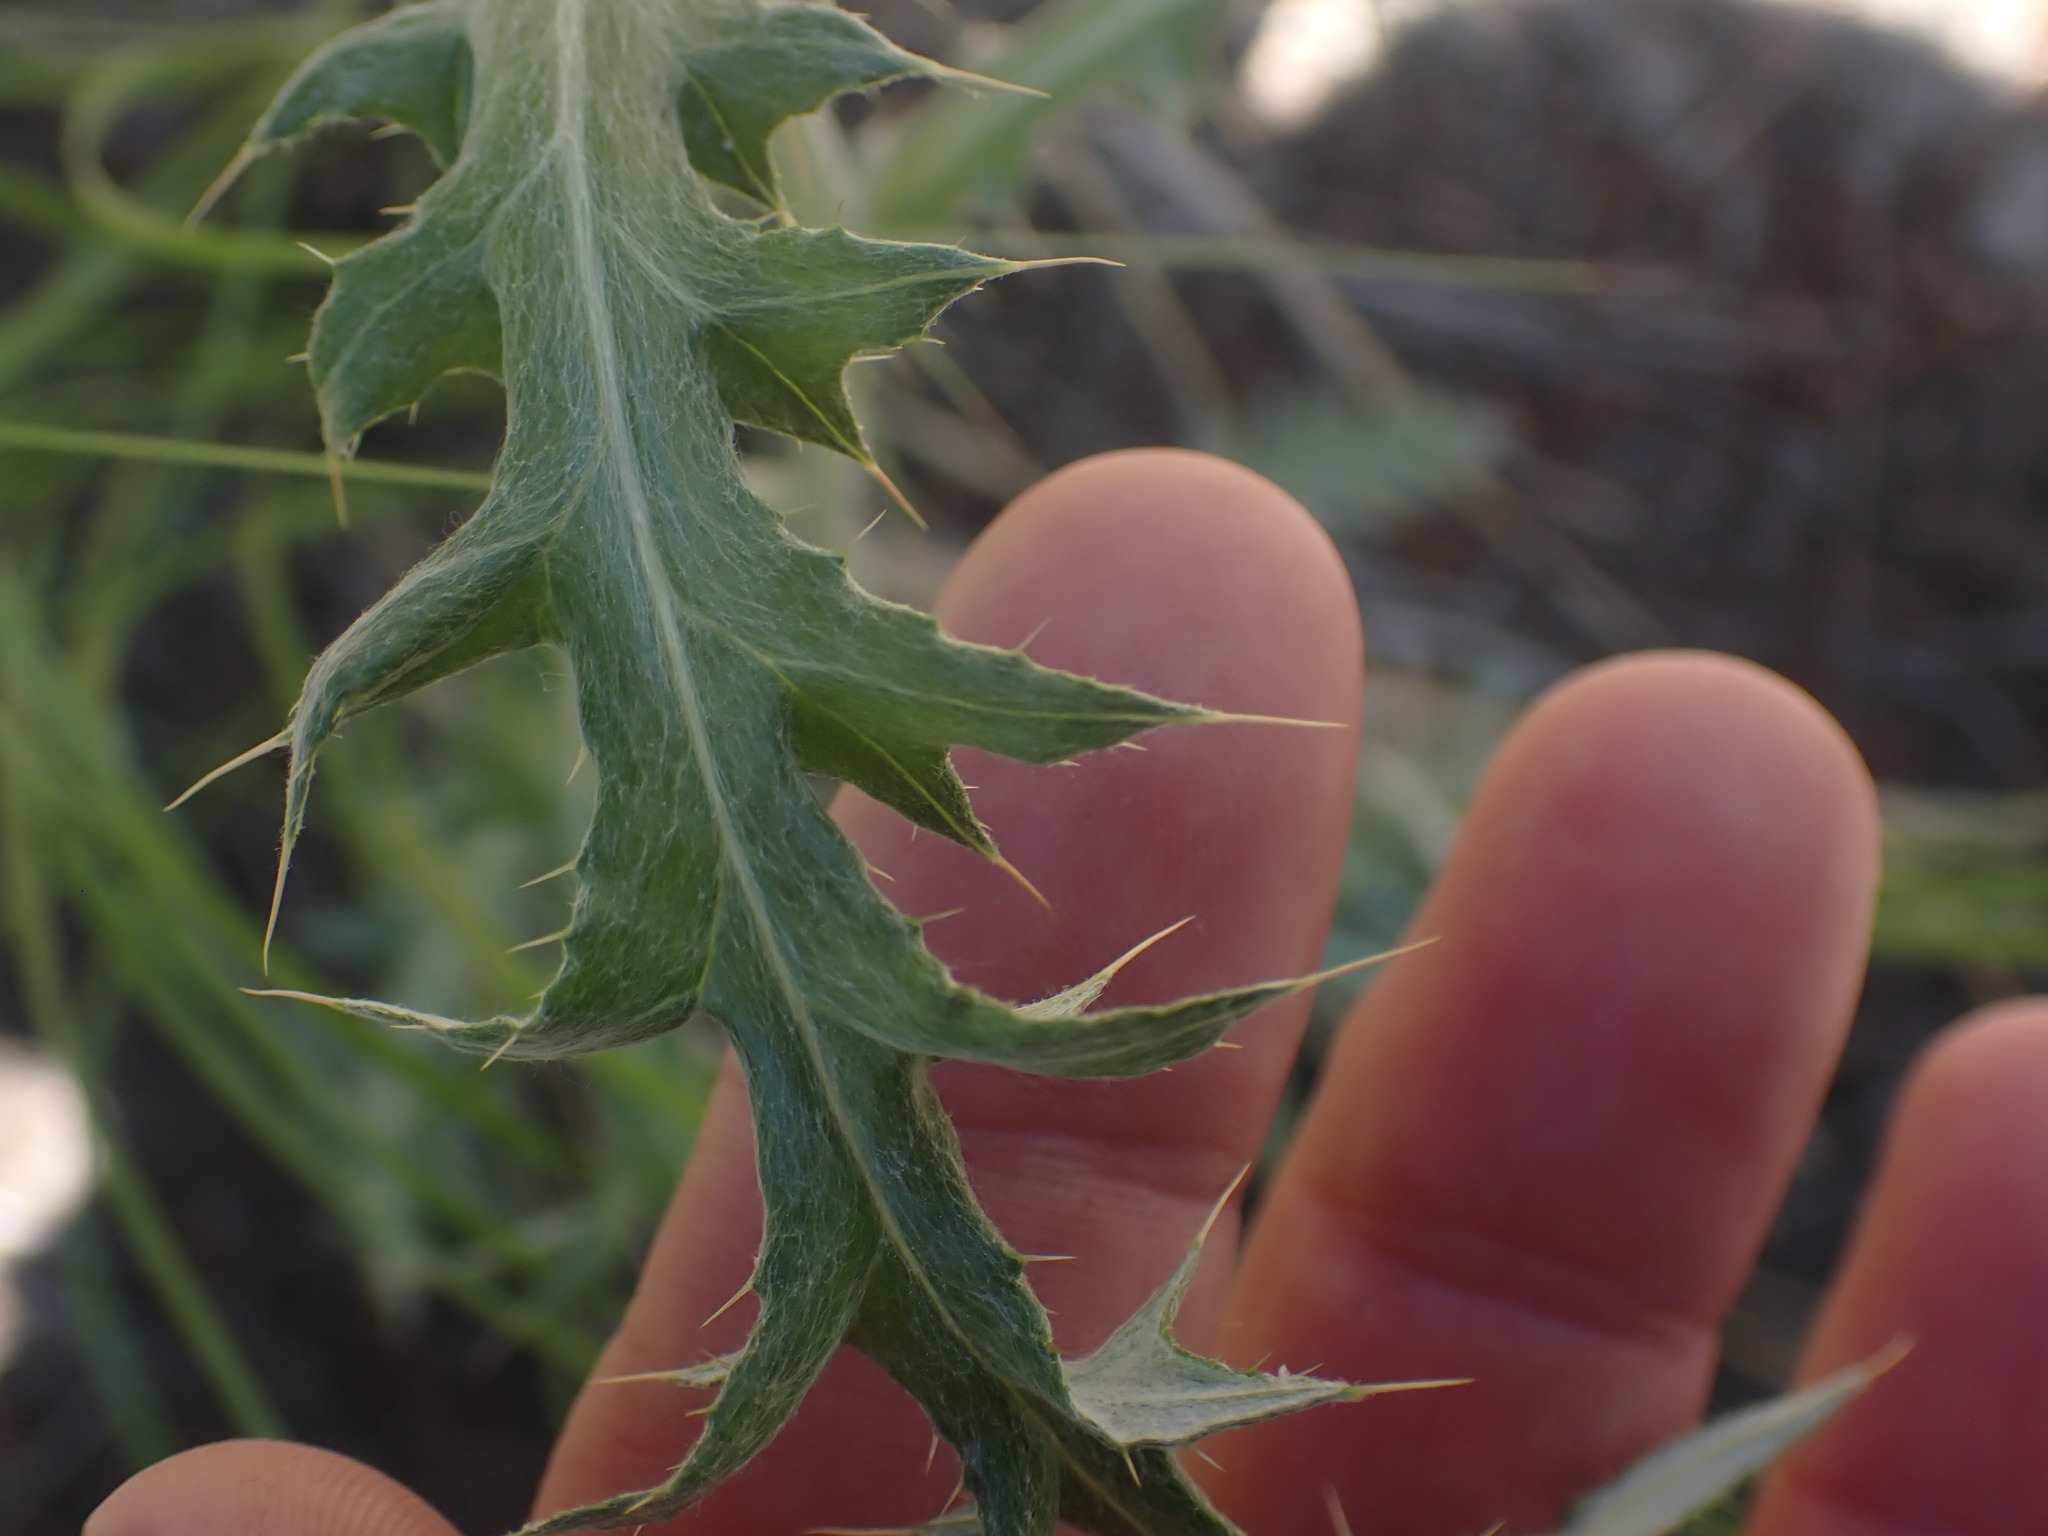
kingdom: Plantae
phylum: Tracheophyta
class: Magnoliopsida
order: Asterales
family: Asteraceae
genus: Cirsium
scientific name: Cirsium undulatum
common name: Pasture thistle
